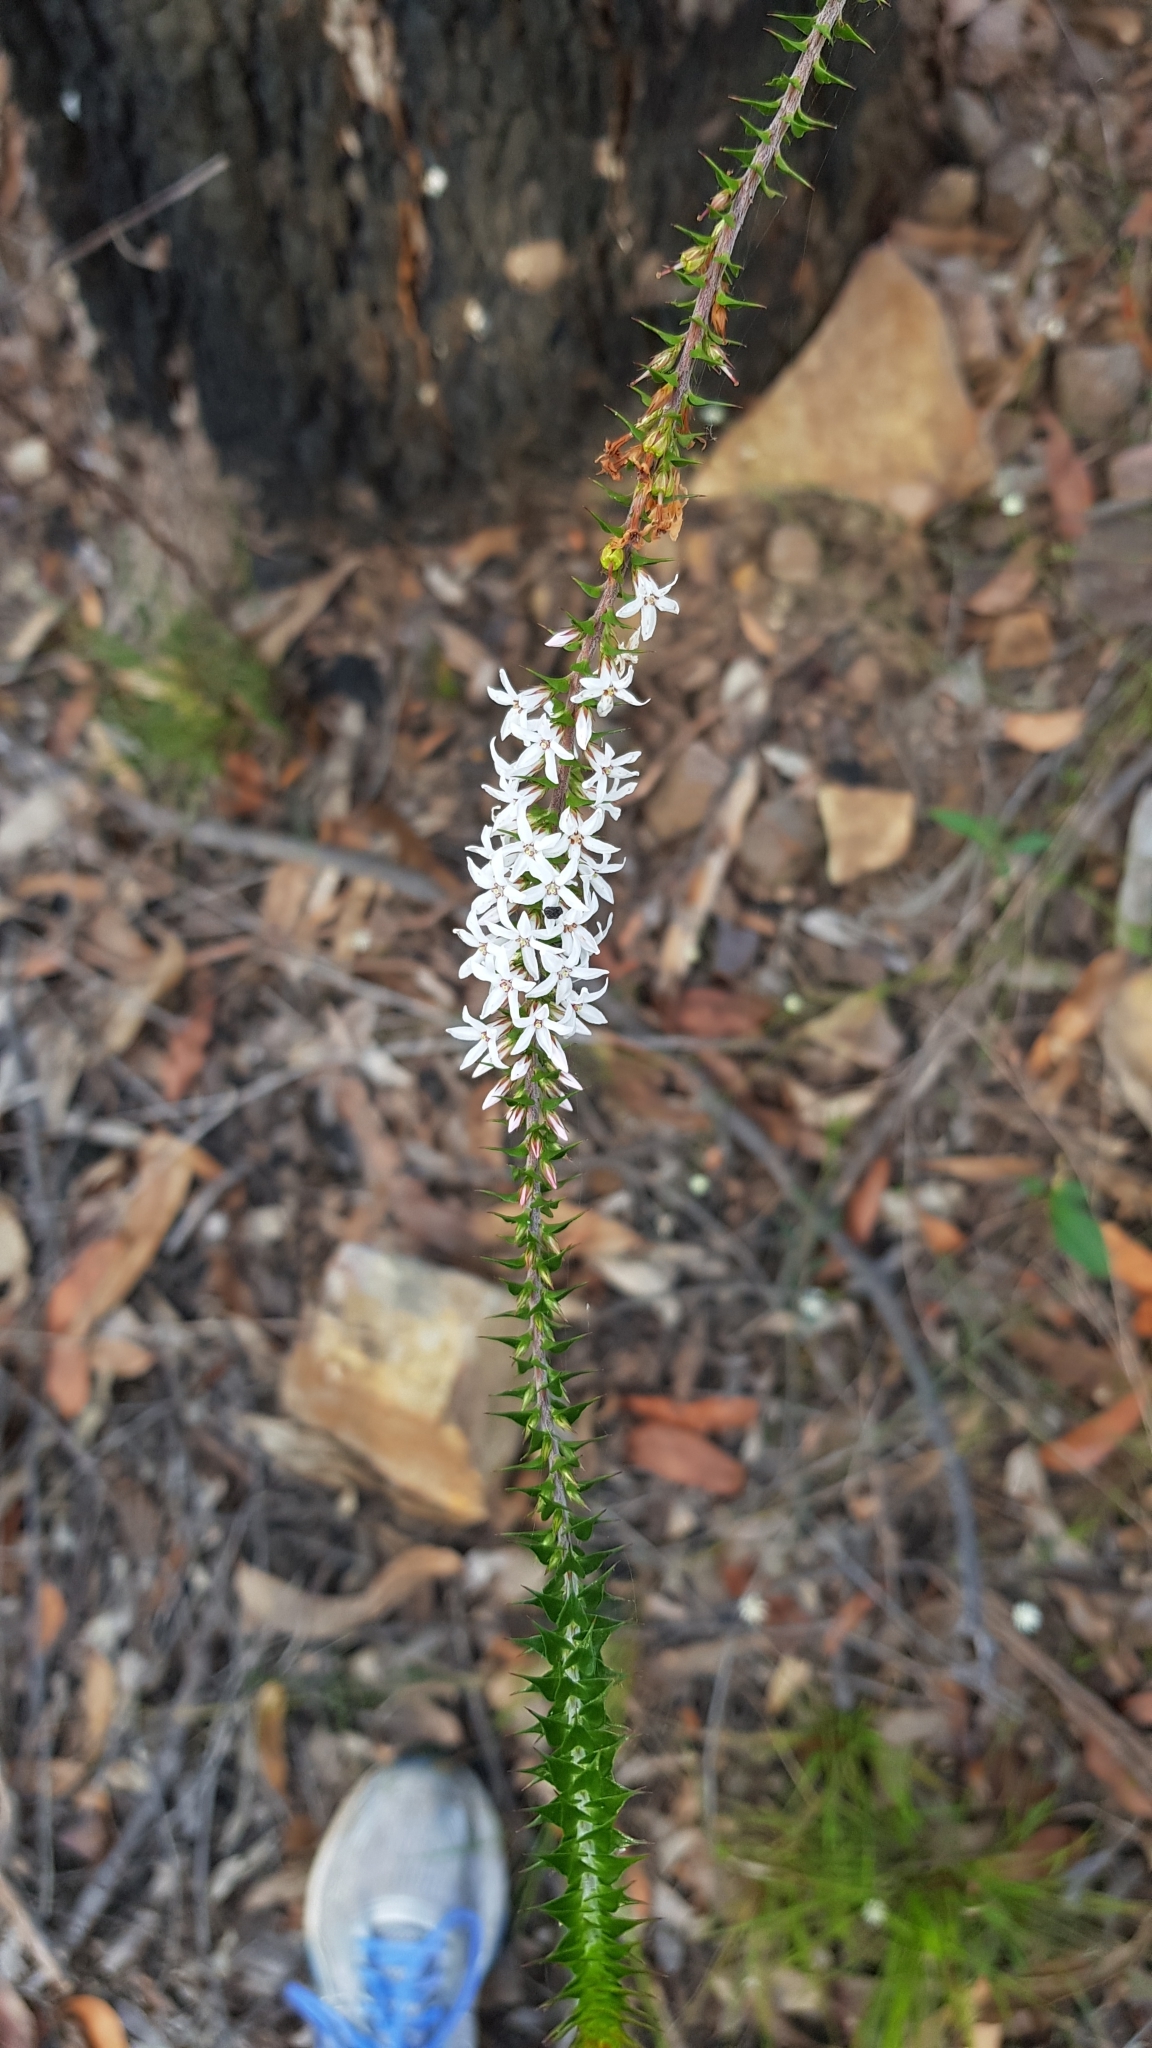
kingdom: Plantae
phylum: Tracheophyta
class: Magnoliopsida
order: Ericales
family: Ericaceae
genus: Epacris
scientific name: Epacris pulchella
